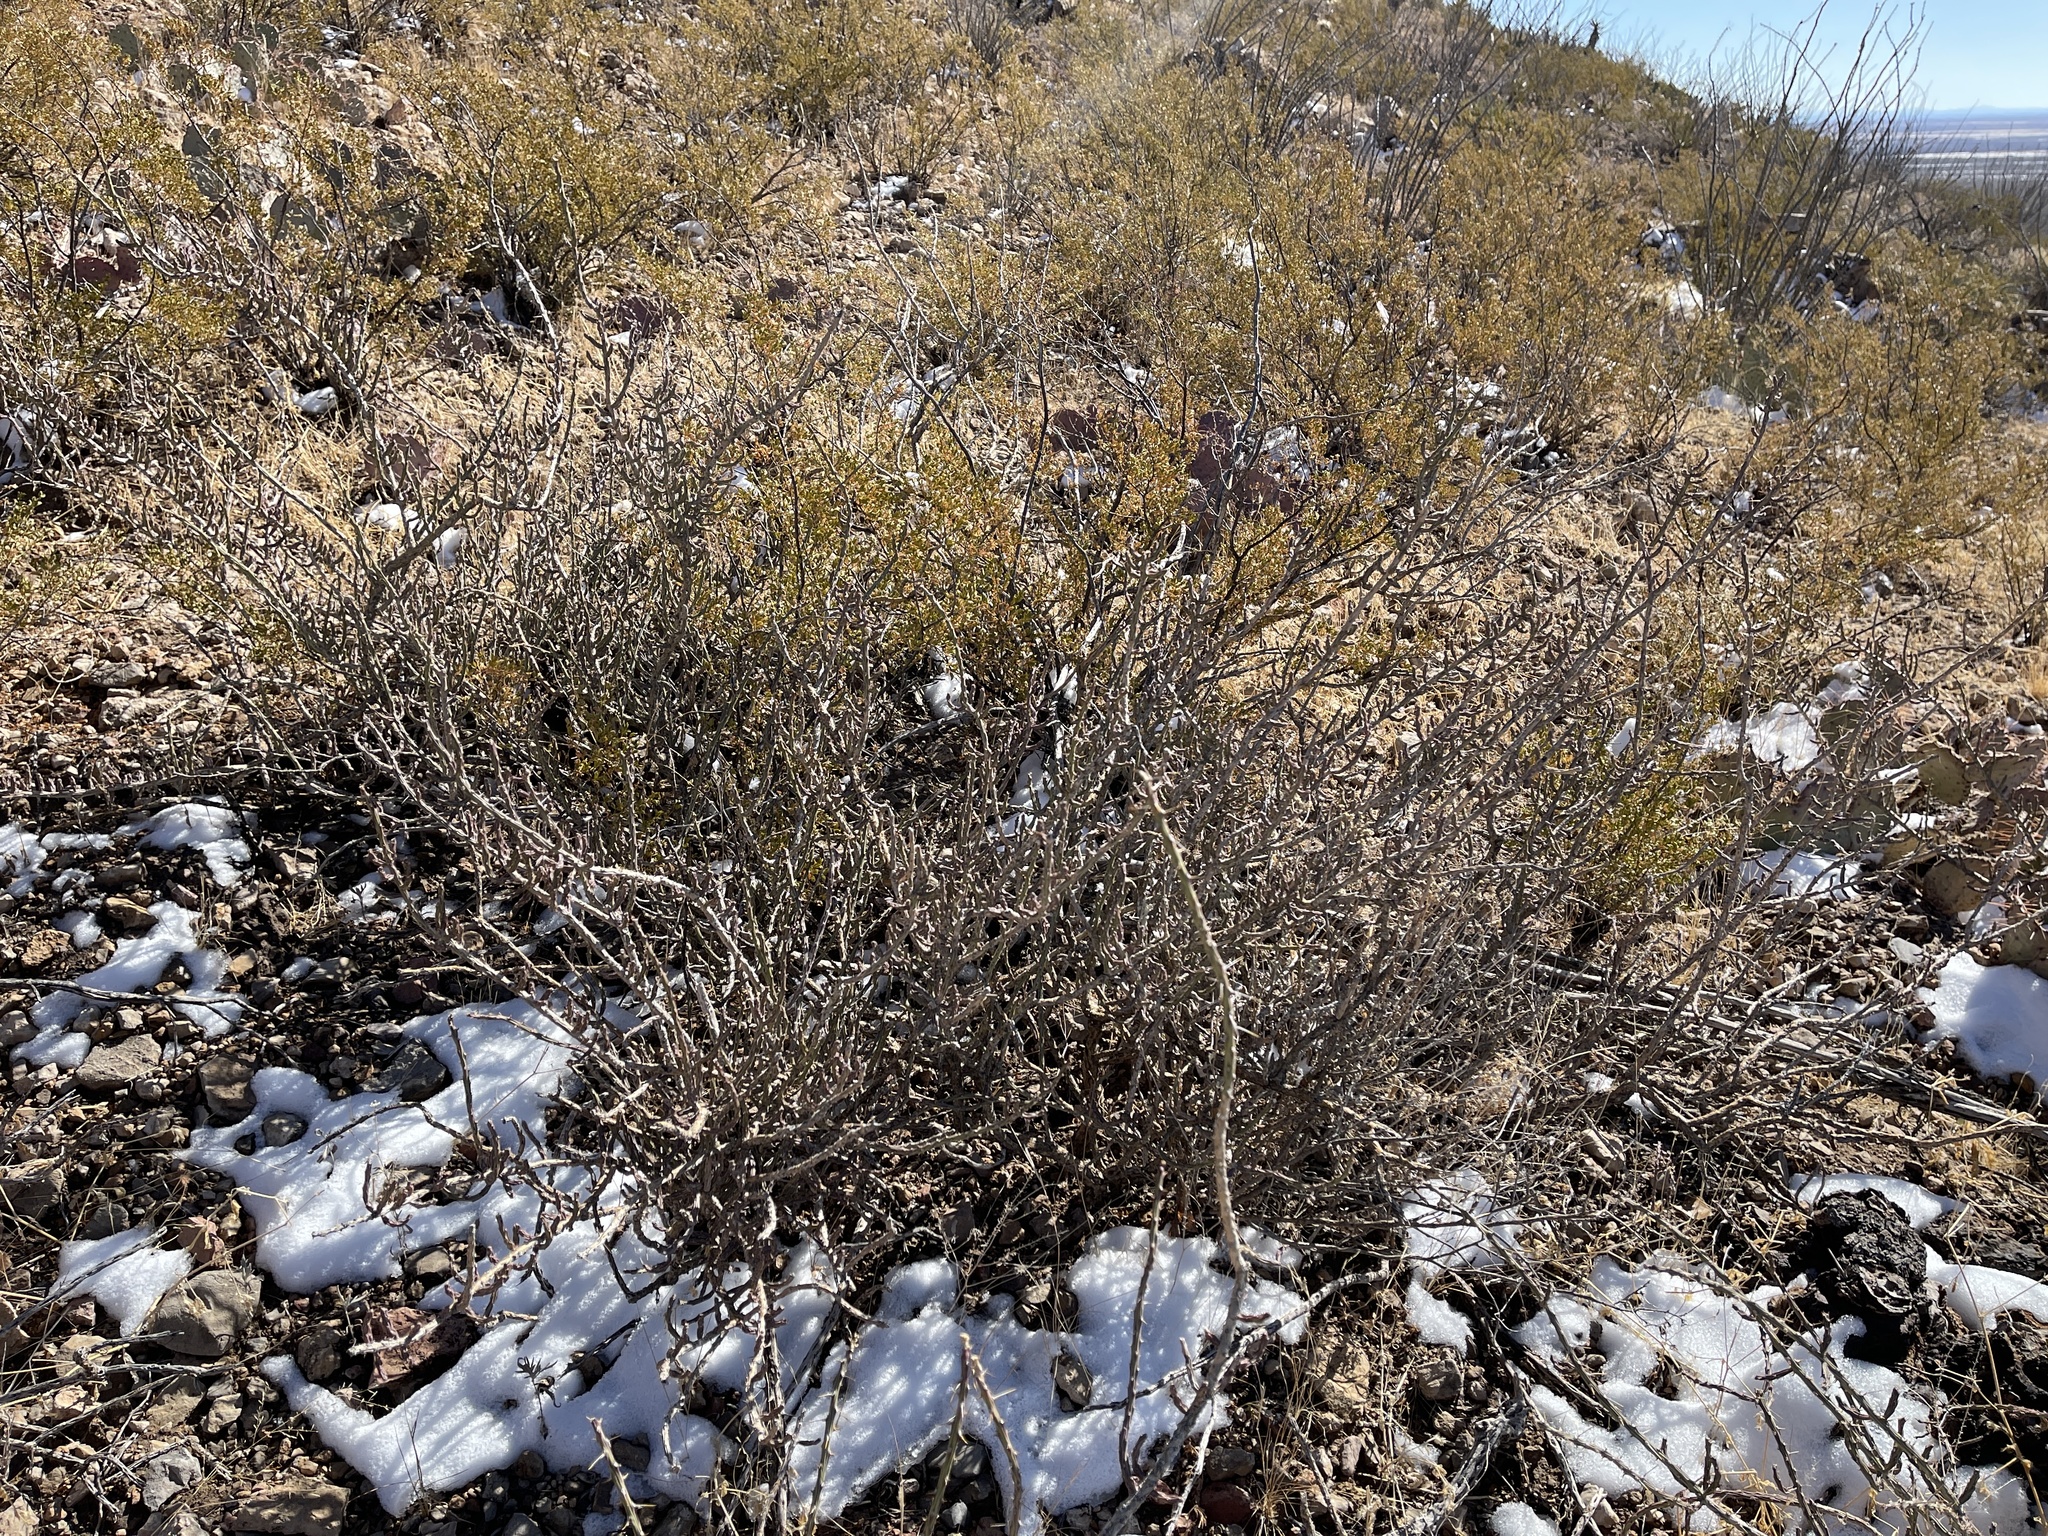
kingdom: Plantae
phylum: Tracheophyta
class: Magnoliopsida
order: Caryophyllales
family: Cactaceae
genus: Cylindropuntia
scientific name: Cylindropuntia leptocaulis
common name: Christmas cactus
